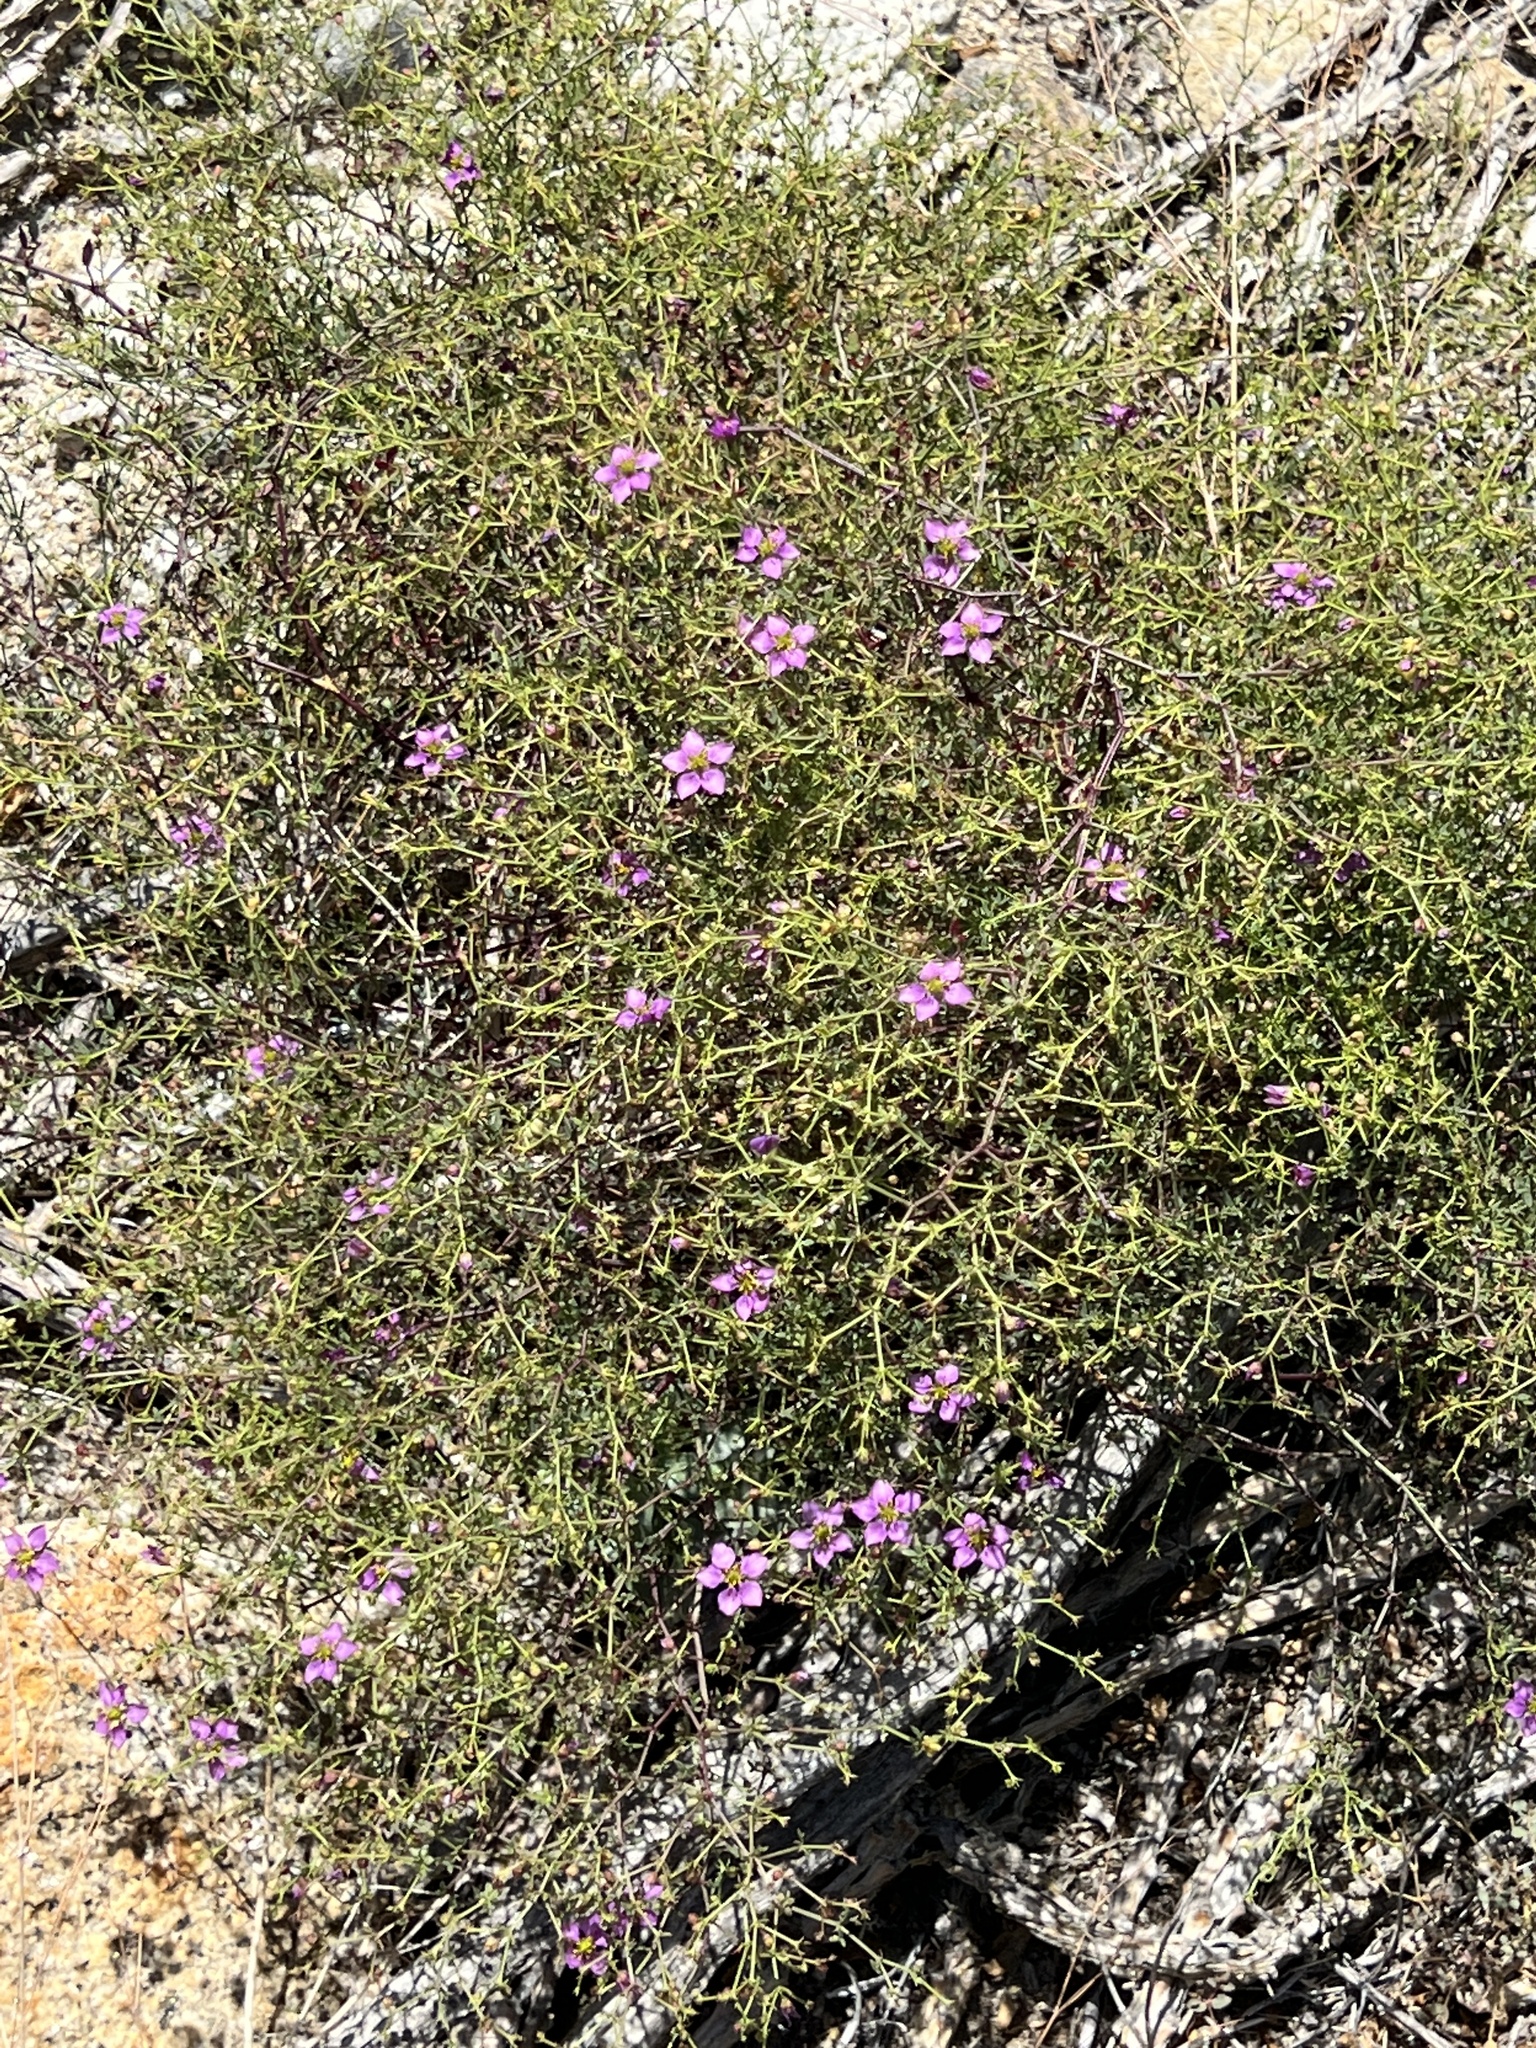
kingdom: Plantae
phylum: Tracheophyta
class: Magnoliopsida
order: Zygophyllales
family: Zygophyllaceae
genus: Fagonia
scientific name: Fagonia laevis
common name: California fagonbush
